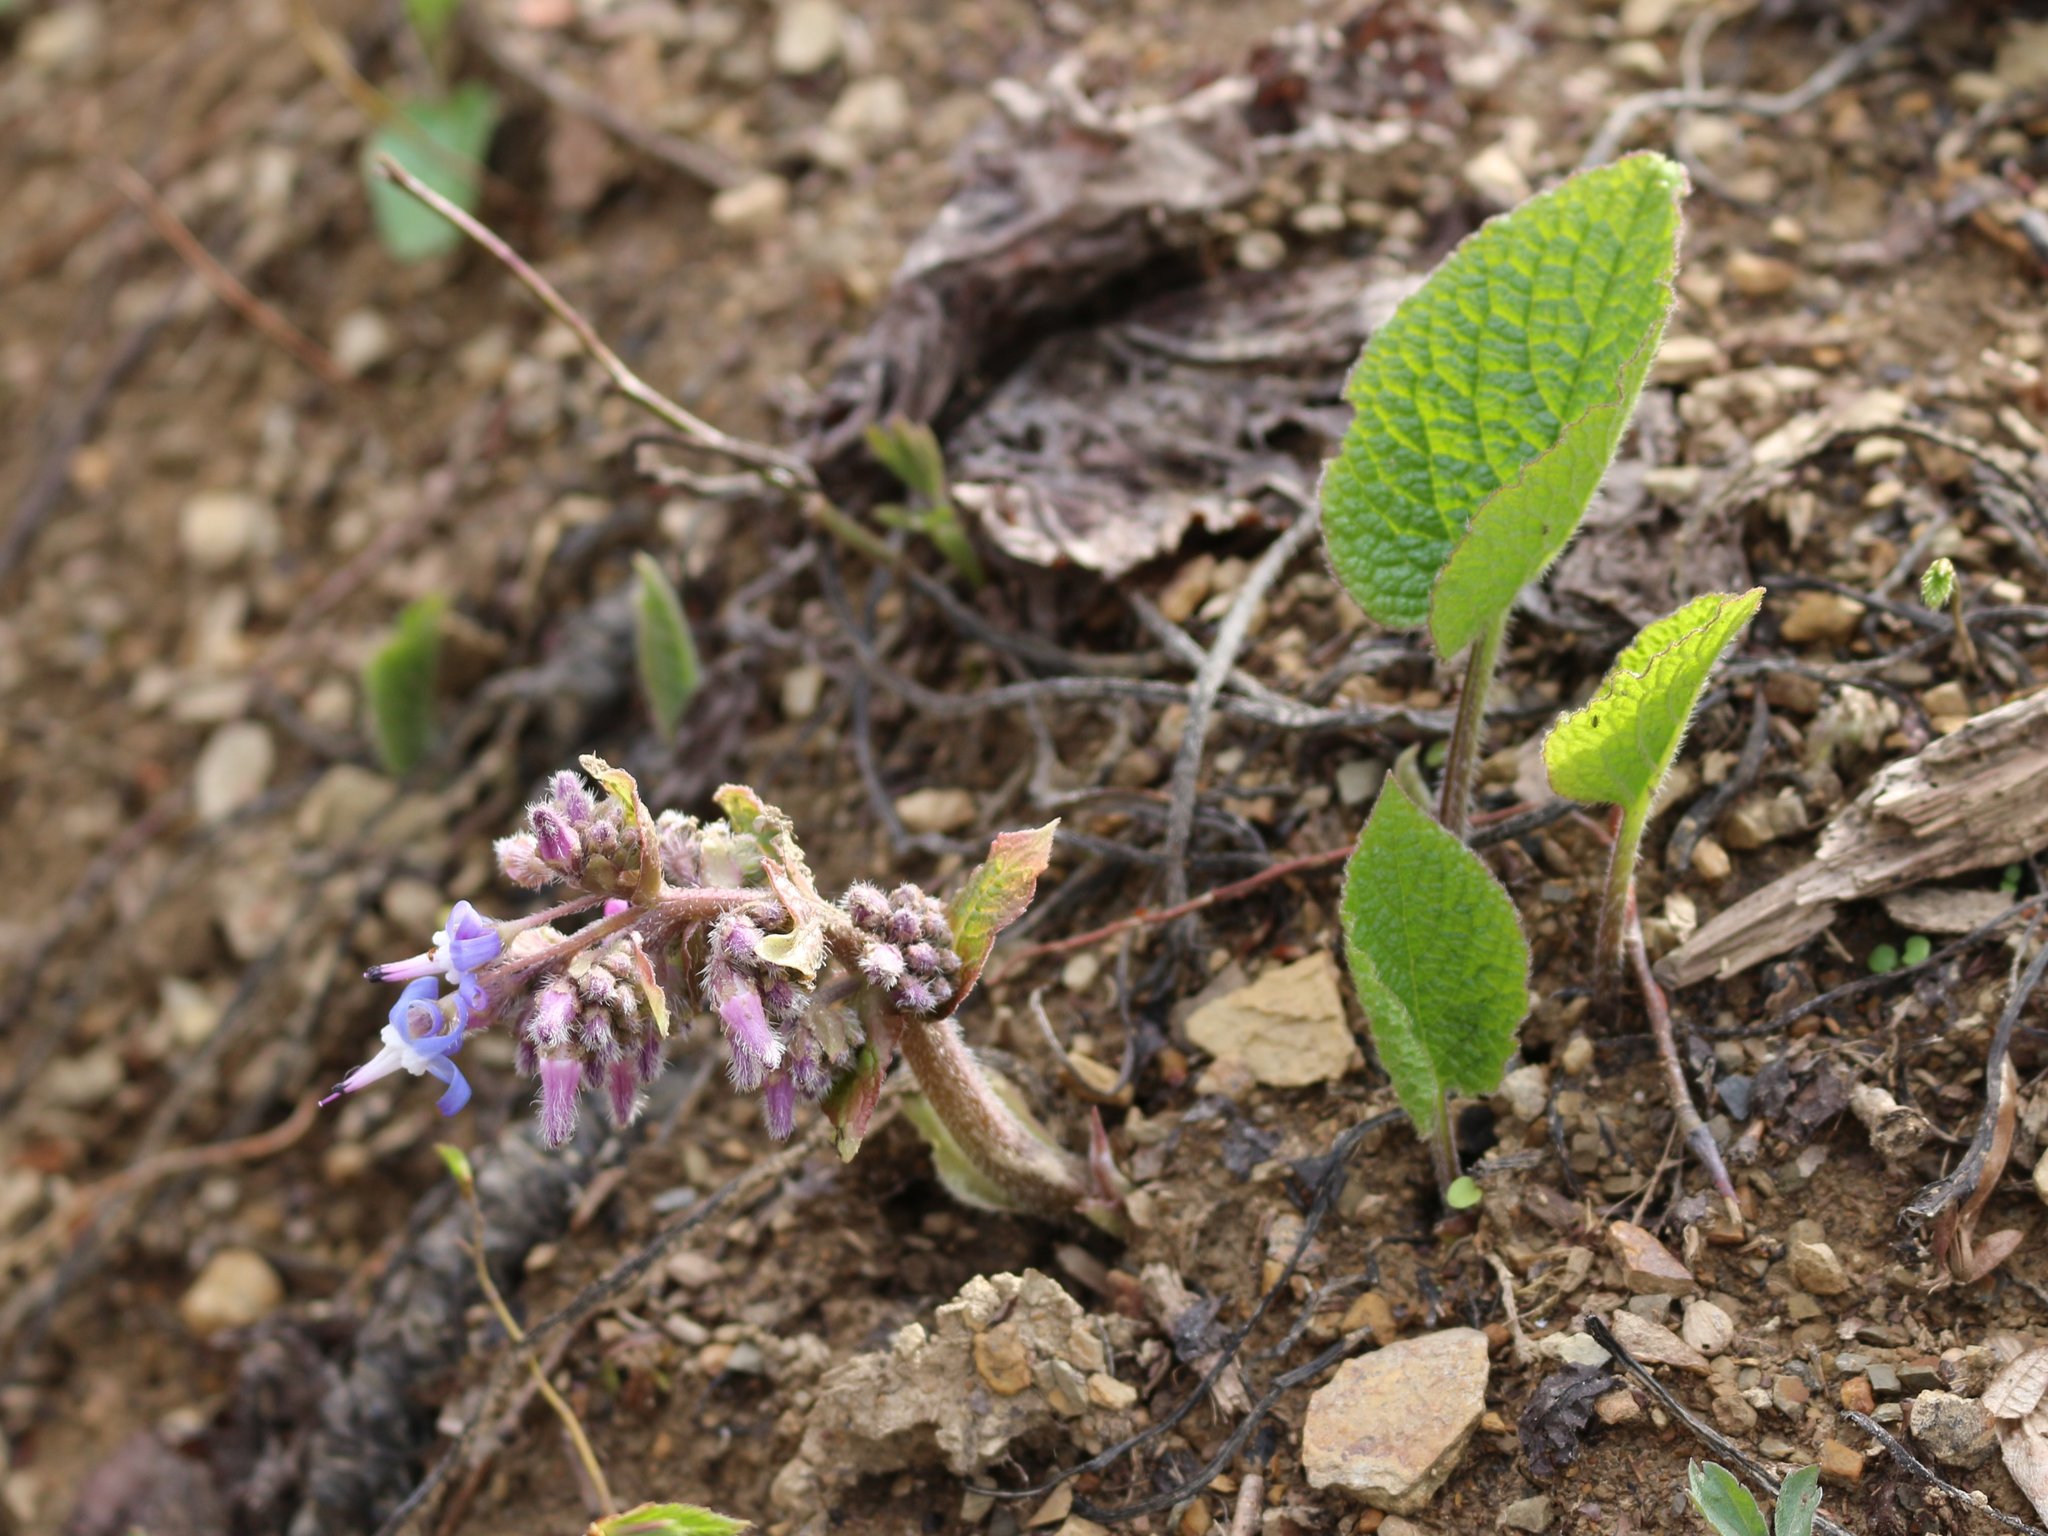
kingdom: Plantae
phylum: Tracheophyta
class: Magnoliopsida
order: Boraginales
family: Boraginaceae
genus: Trachystemon
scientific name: Trachystemon orientale
